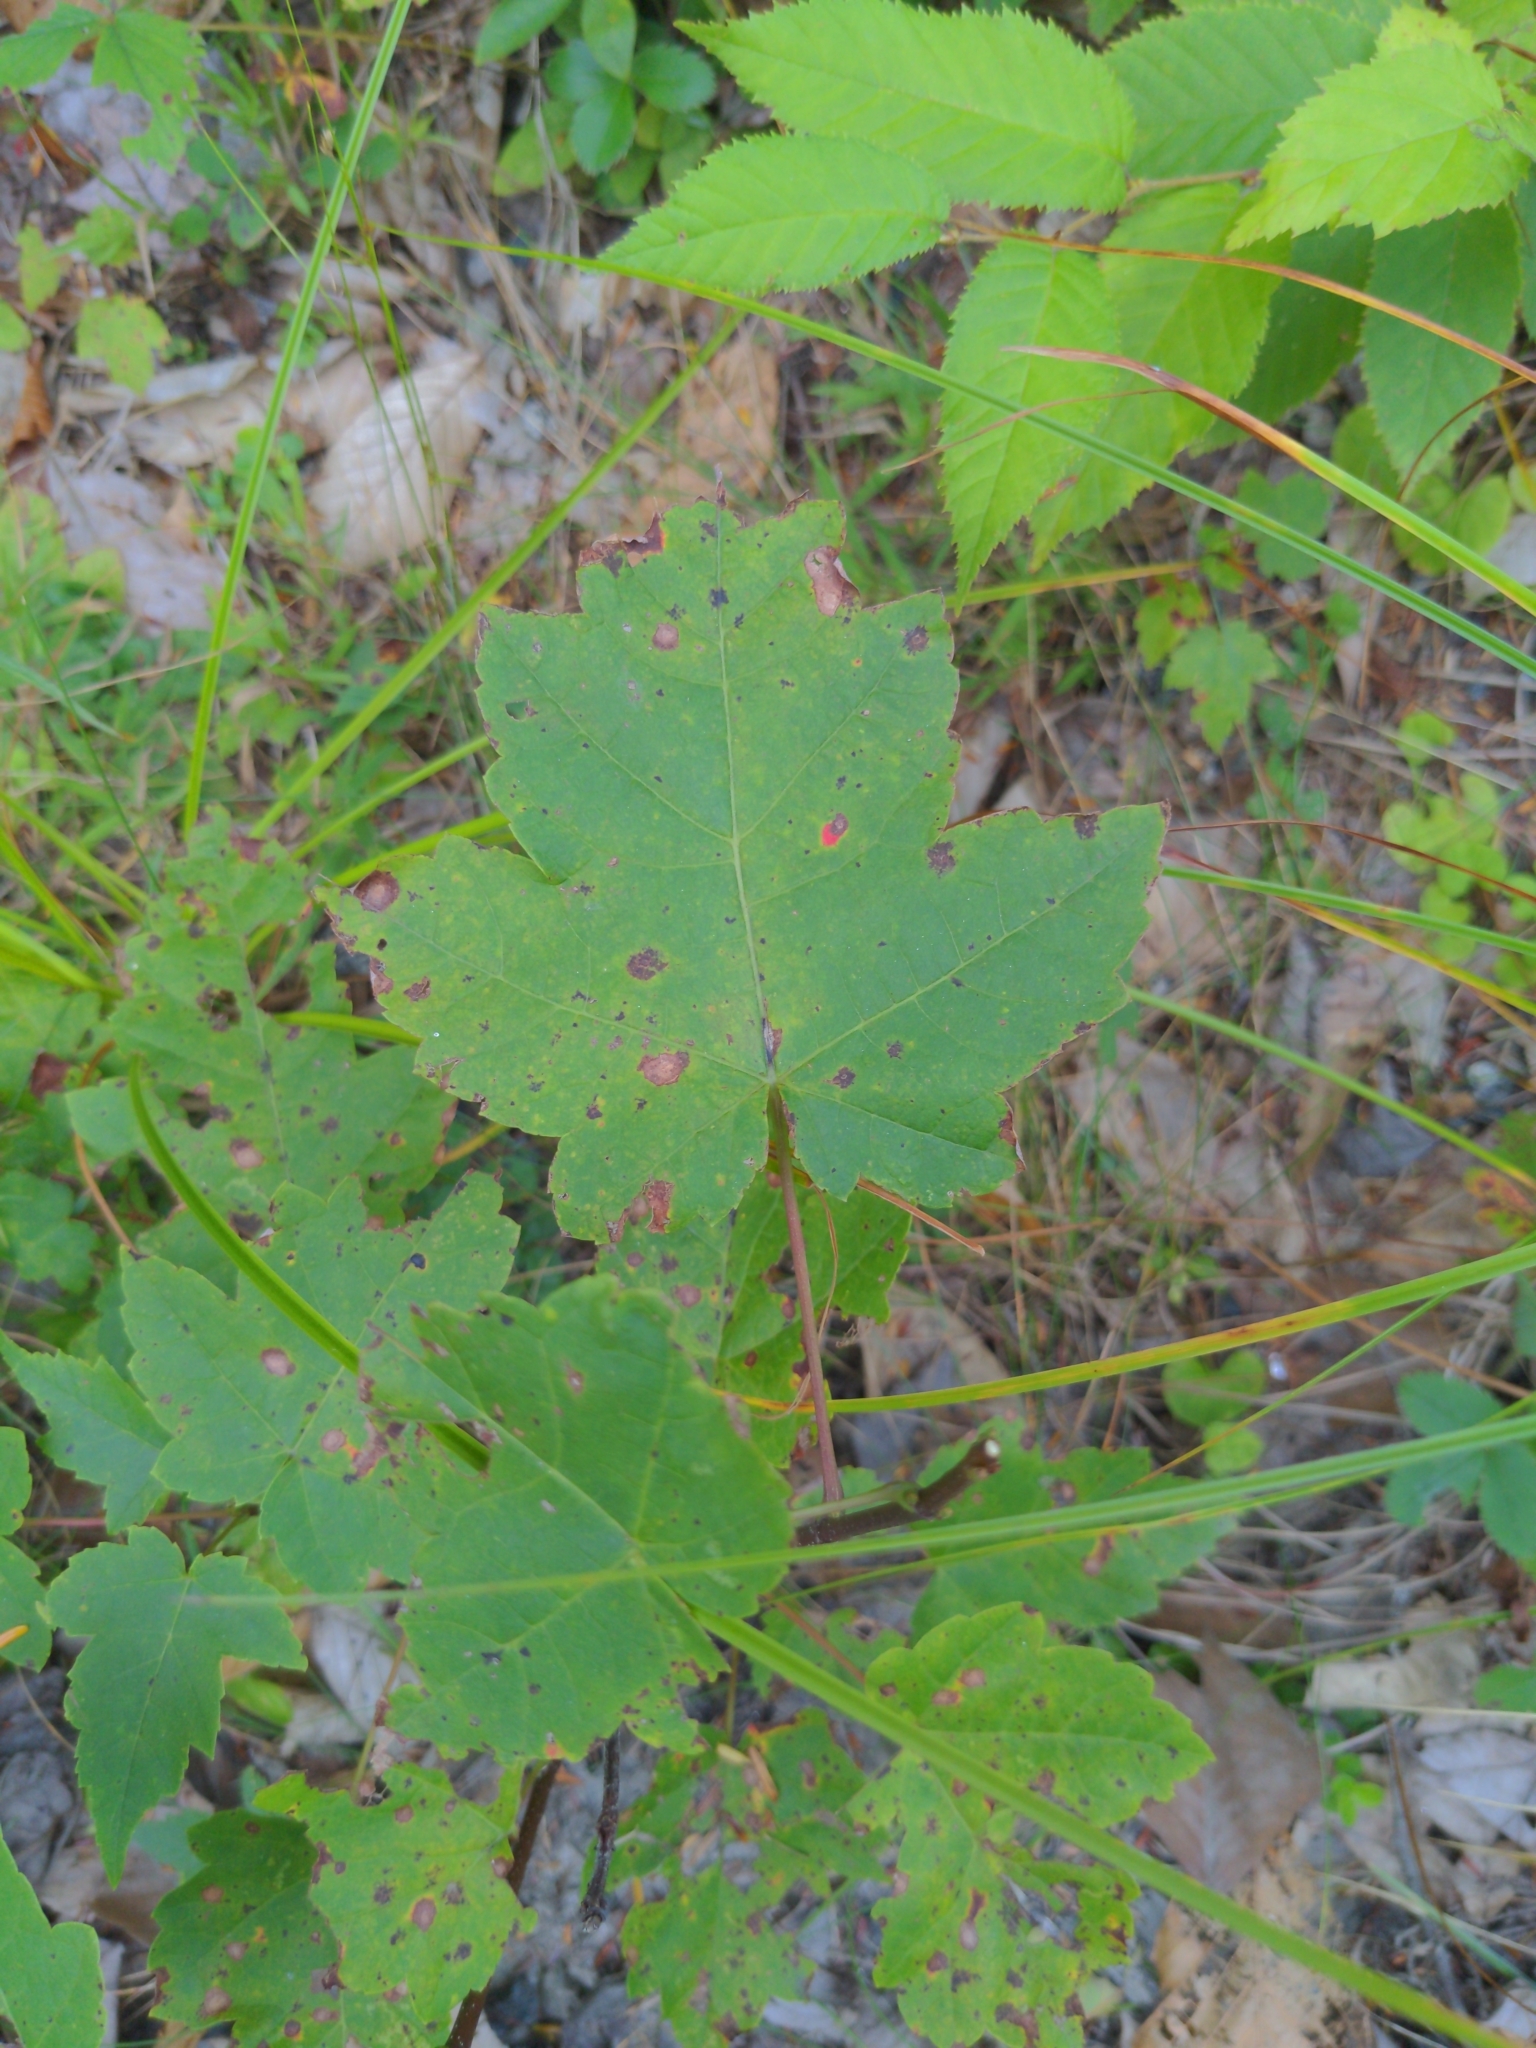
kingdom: Plantae
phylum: Tracheophyta
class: Magnoliopsida
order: Sapindales
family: Sapindaceae
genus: Acer
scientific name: Acer rubrum
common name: Red maple
